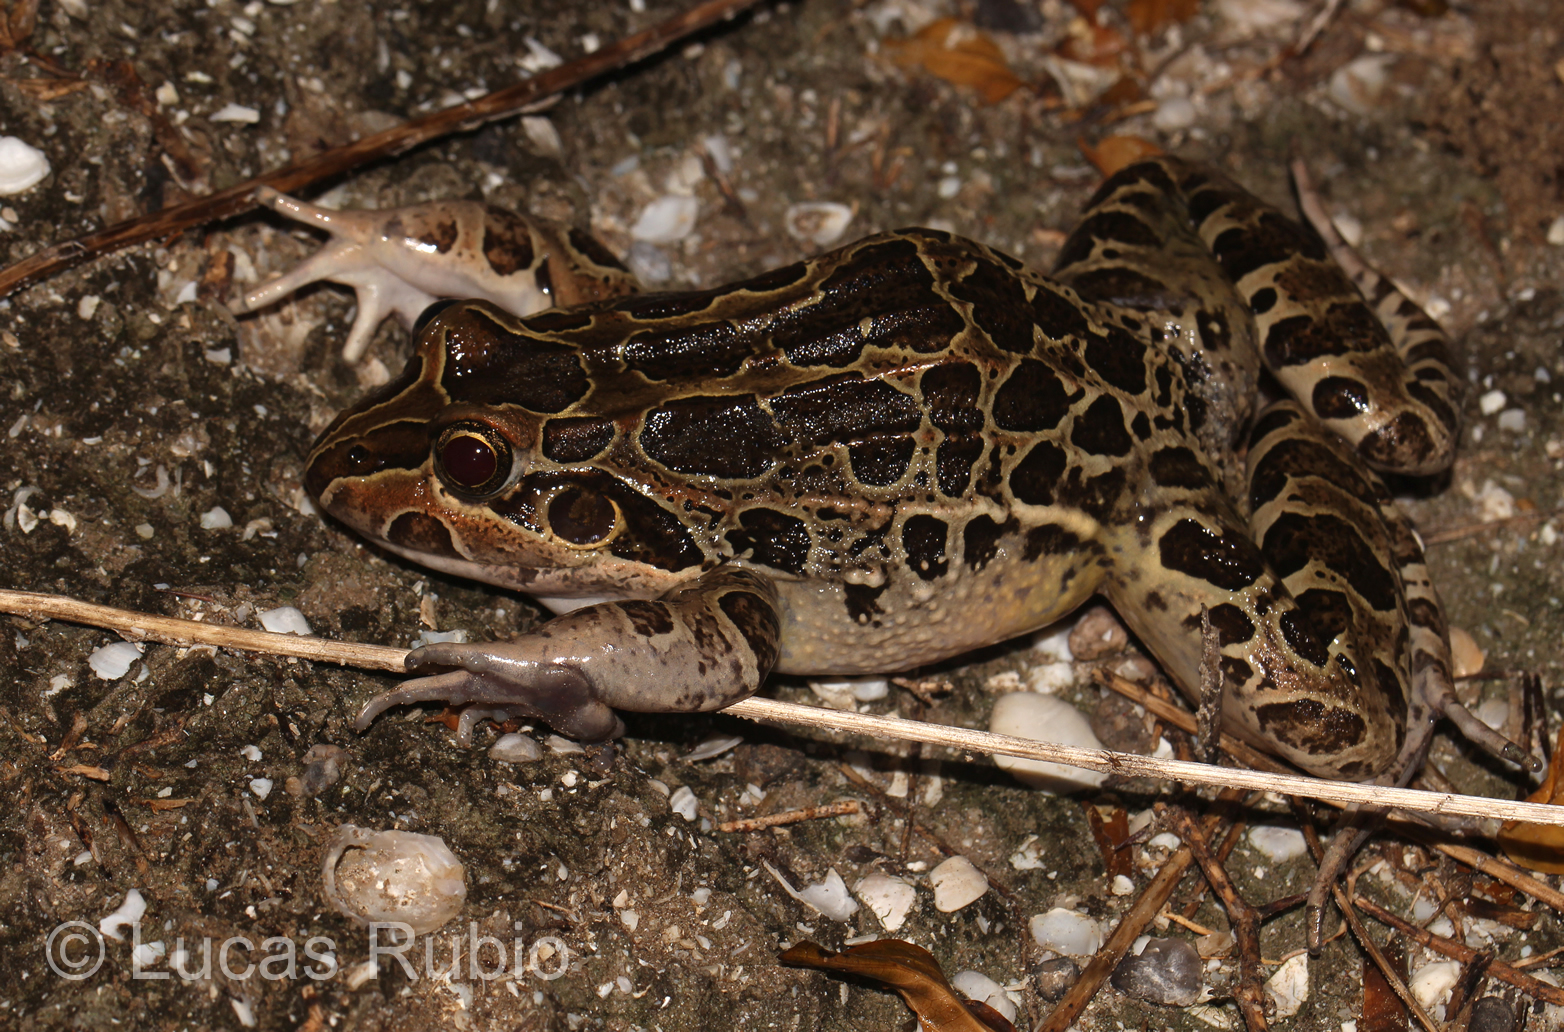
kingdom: Animalia
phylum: Chordata
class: Amphibia
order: Anura
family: Leptodactylidae
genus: Leptodactylus
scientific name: Leptodactylus luctator
